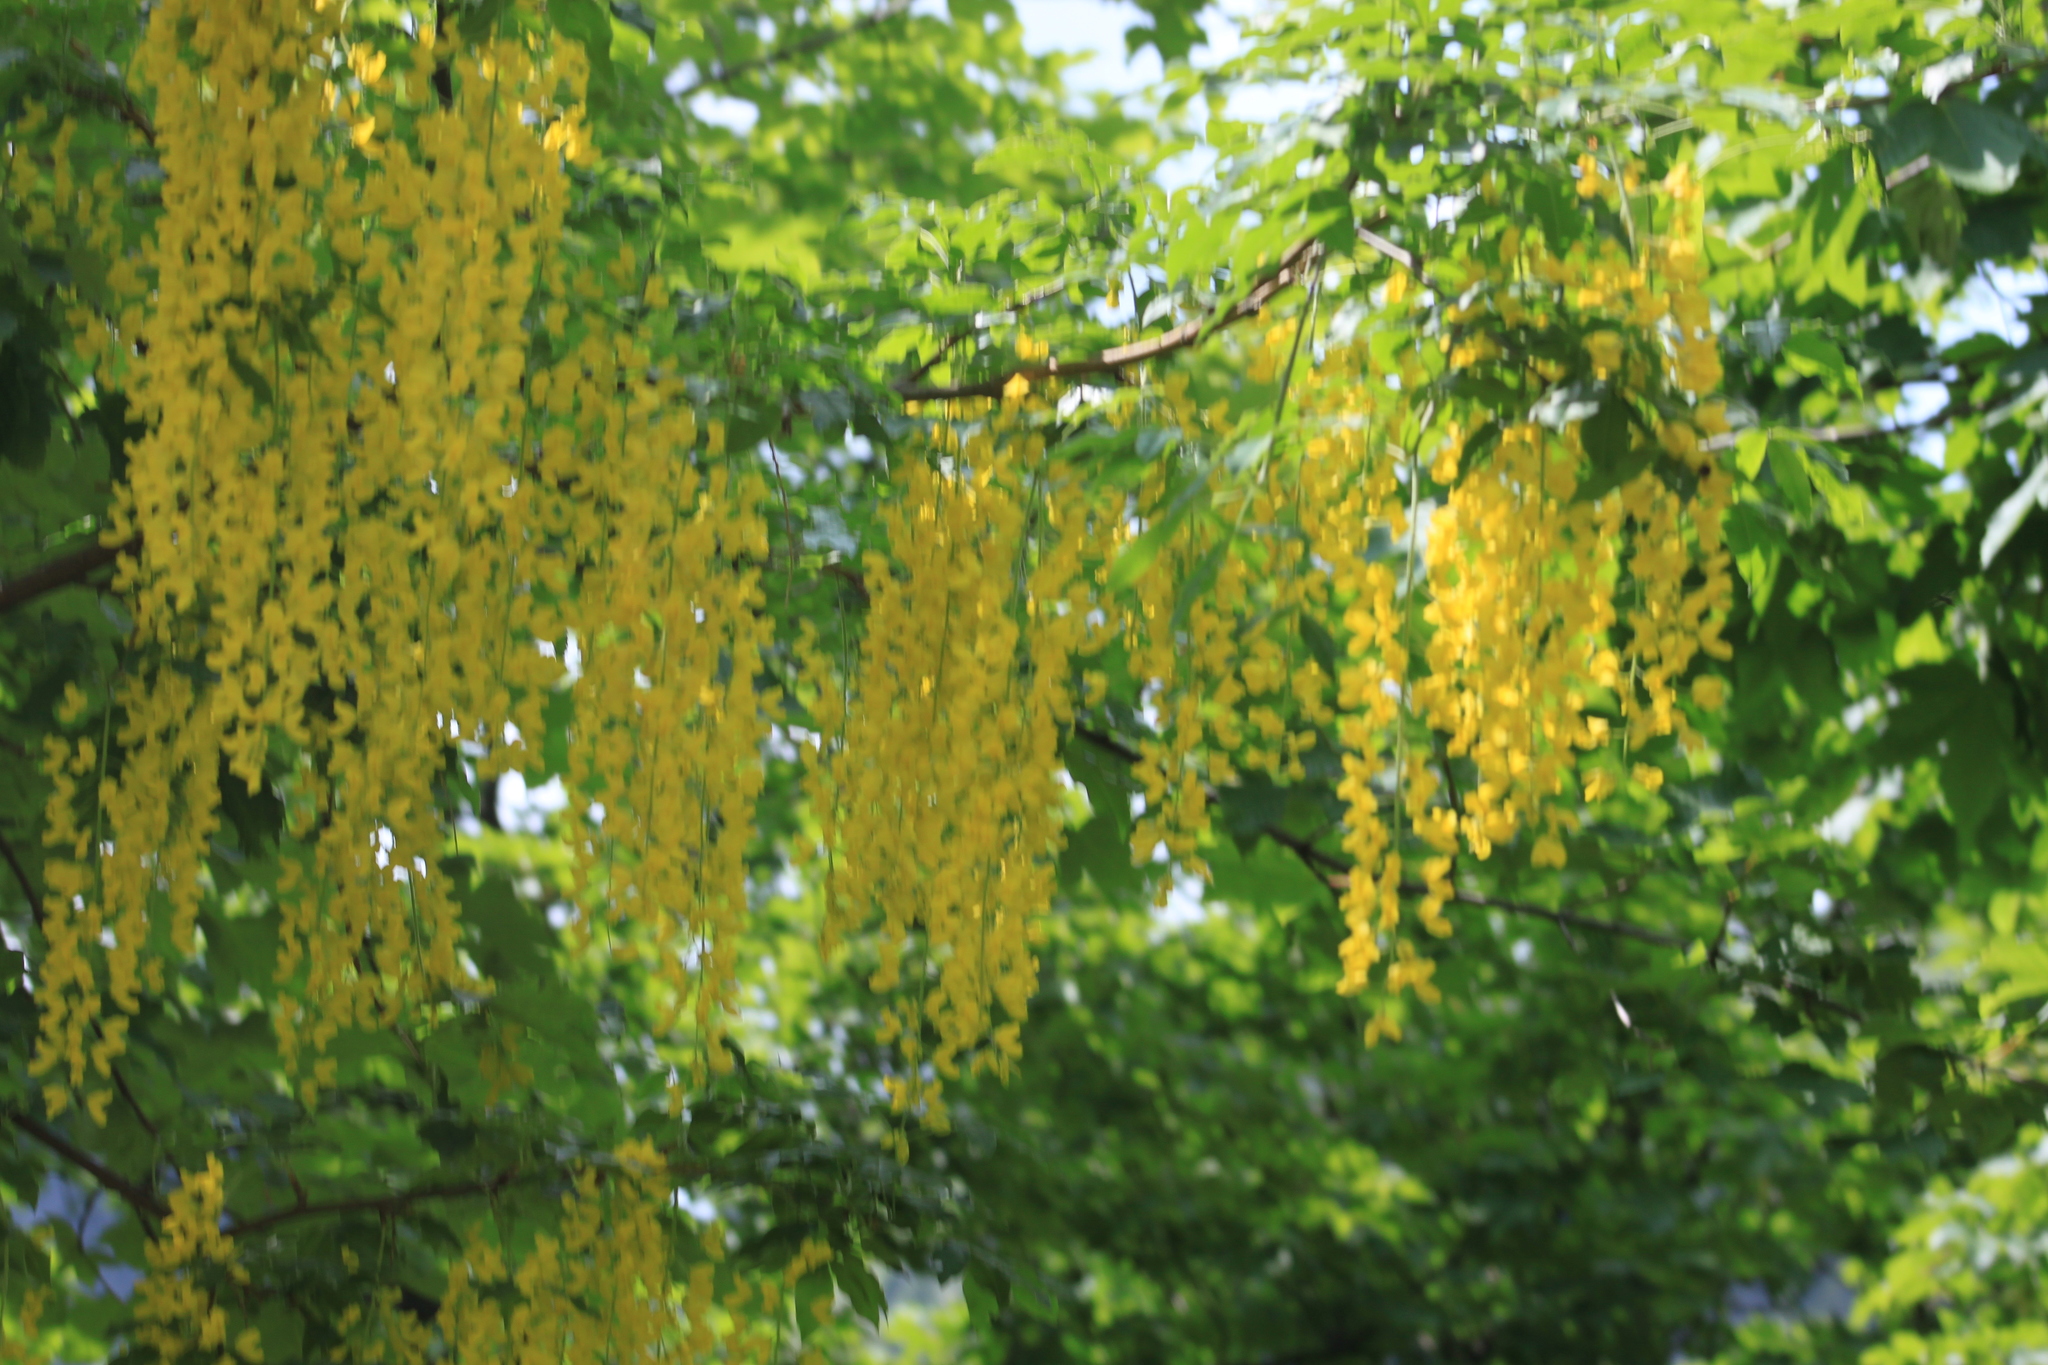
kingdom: Plantae
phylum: Tracheophyta
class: Magnoliopsida
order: Fabales
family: Fabaceae
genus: Laburnum
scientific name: Laburnum anagyroides
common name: Laburnum
